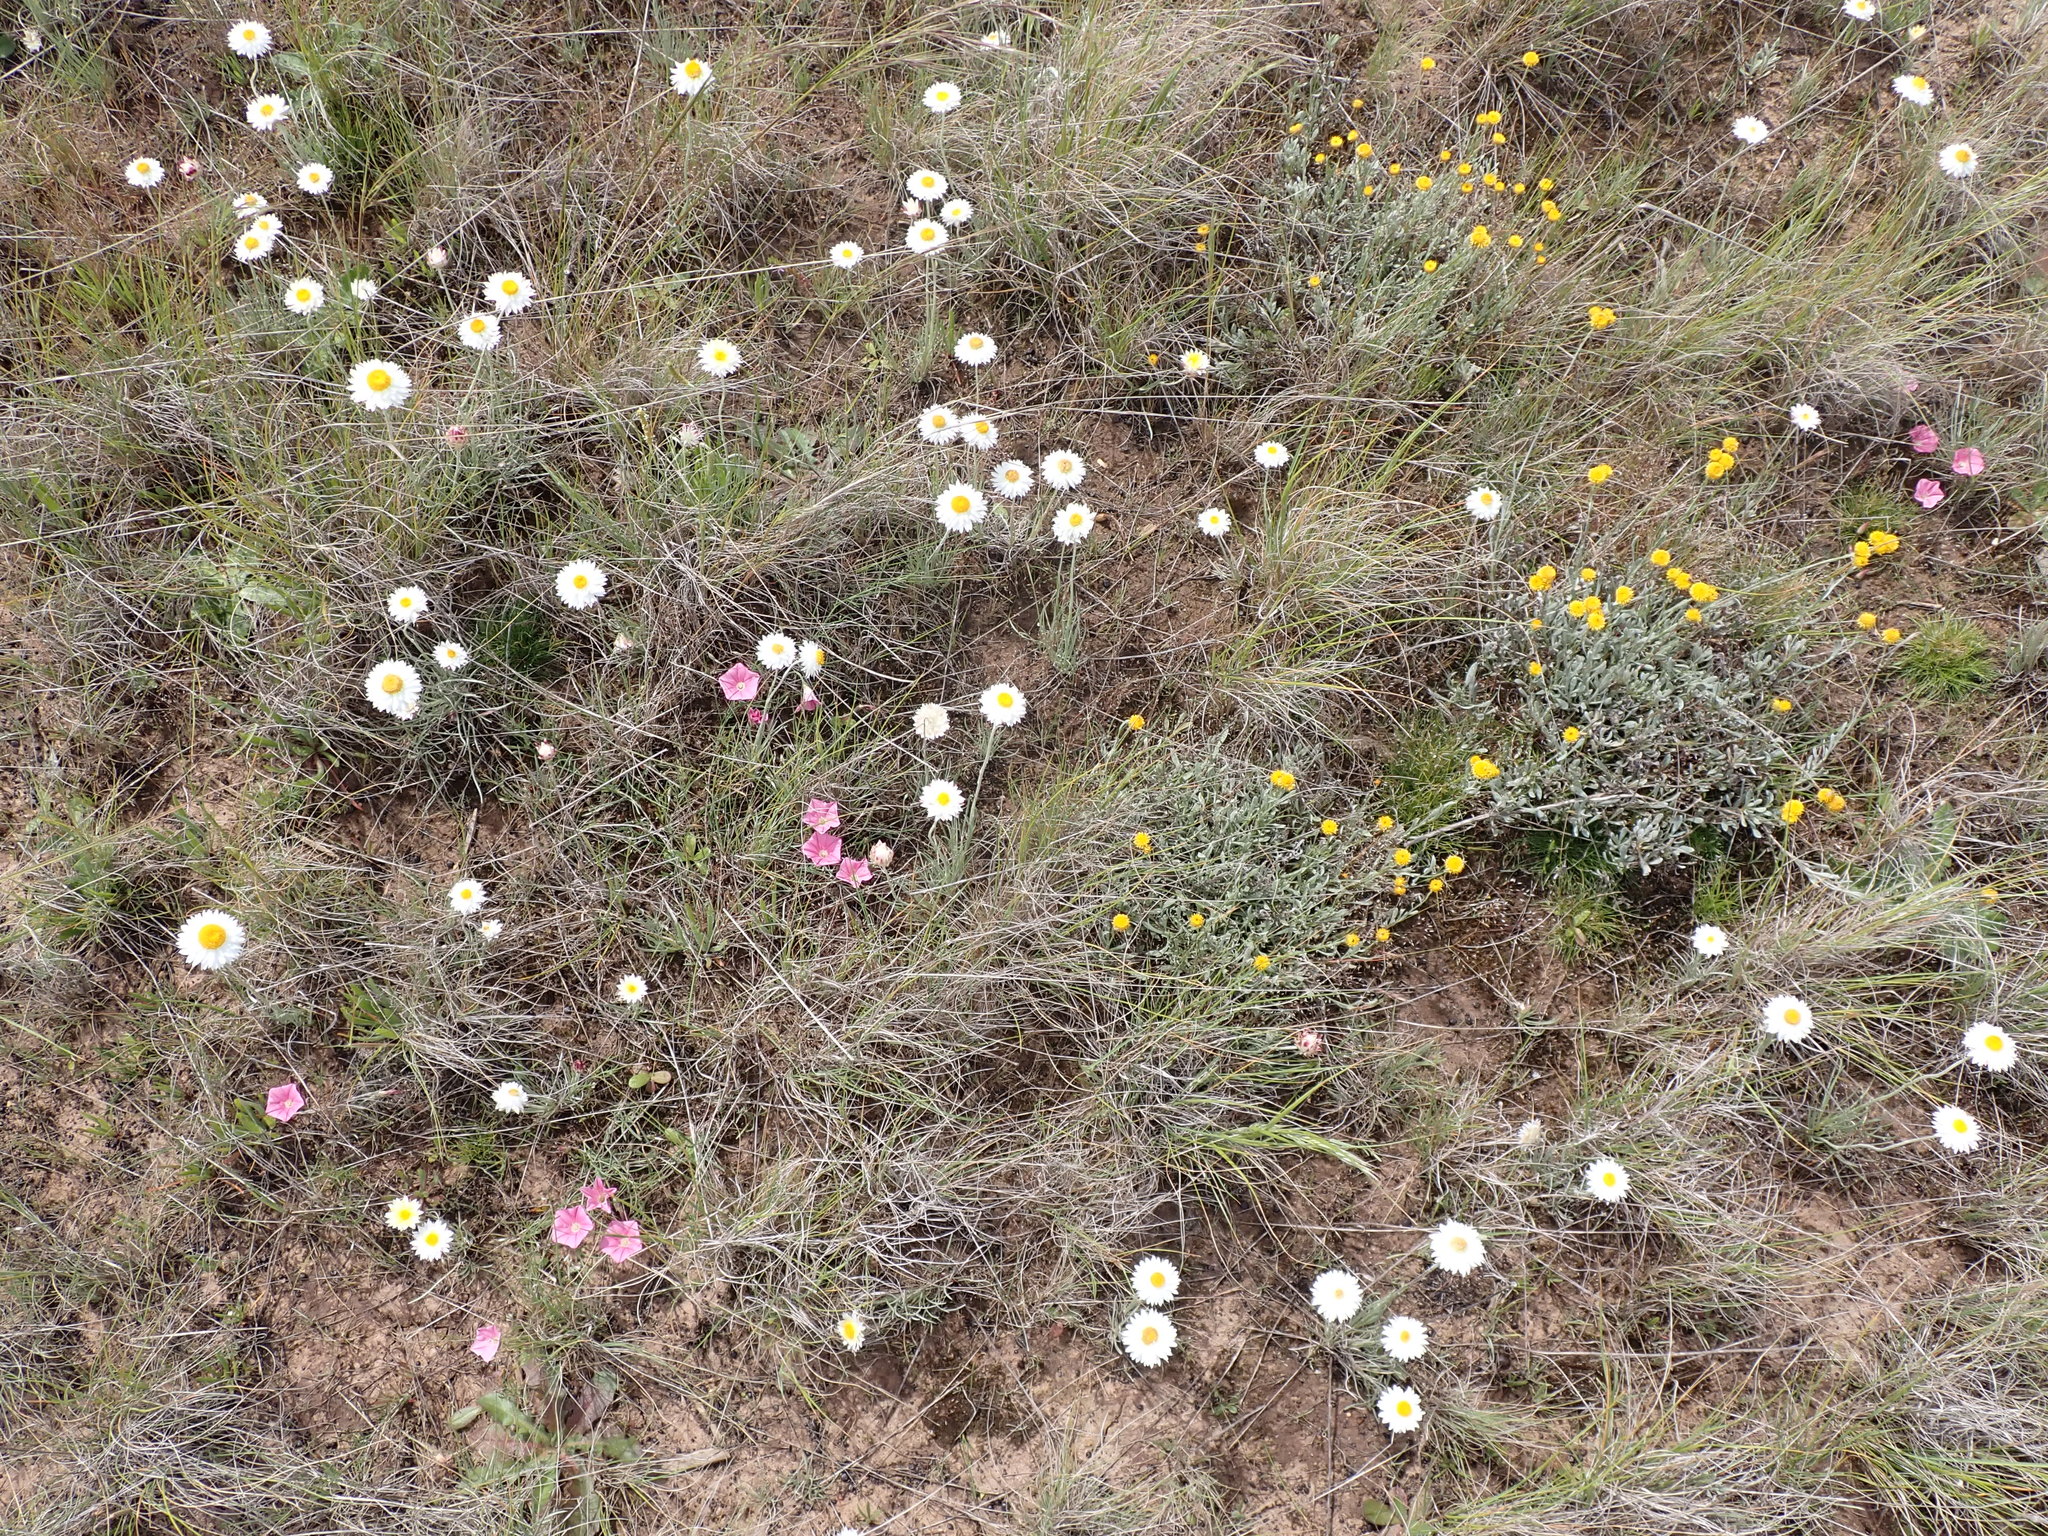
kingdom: Plantae
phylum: Tracheophyta
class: Magnoliopsida
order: Asterales
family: Asteraceae
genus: Leucochrysum
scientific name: Leucochrysum albicans
